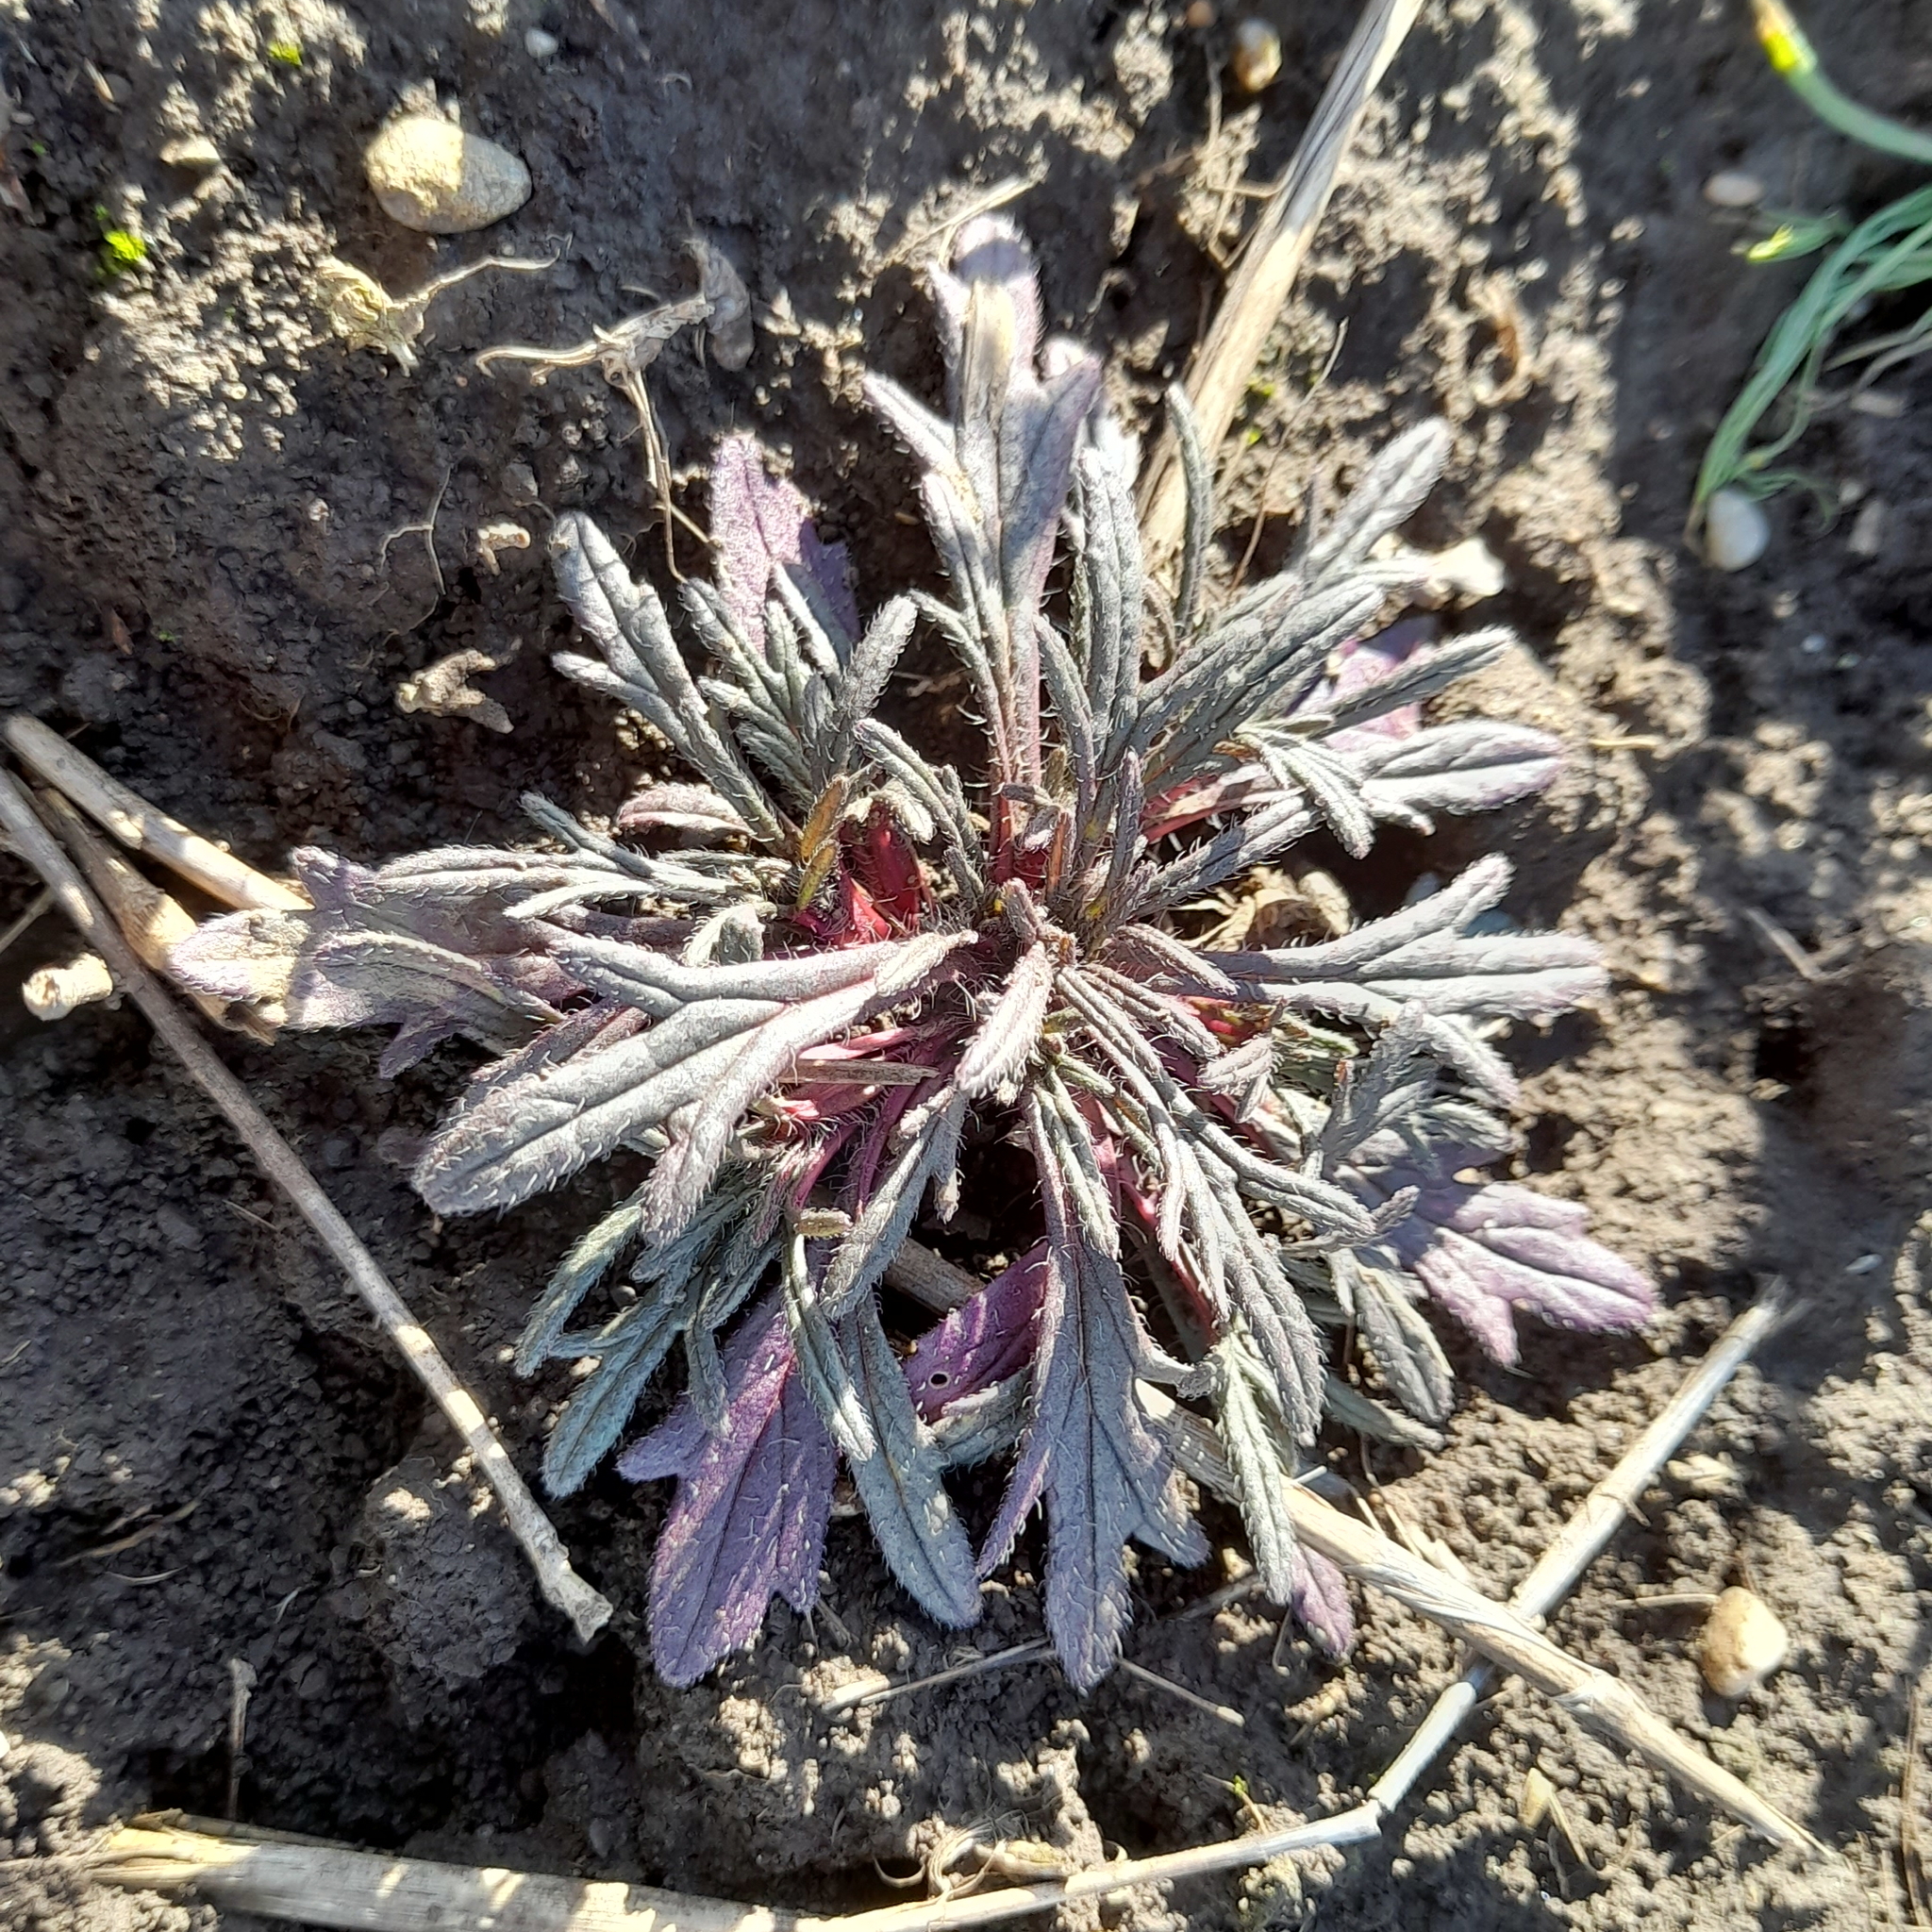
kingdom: Plantae
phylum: Tracheophyta
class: Magnoliopsida
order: Lamiales
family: Lamiaceae
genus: Ajuga
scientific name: Ajuga chamaepitys
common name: Ground-pine
